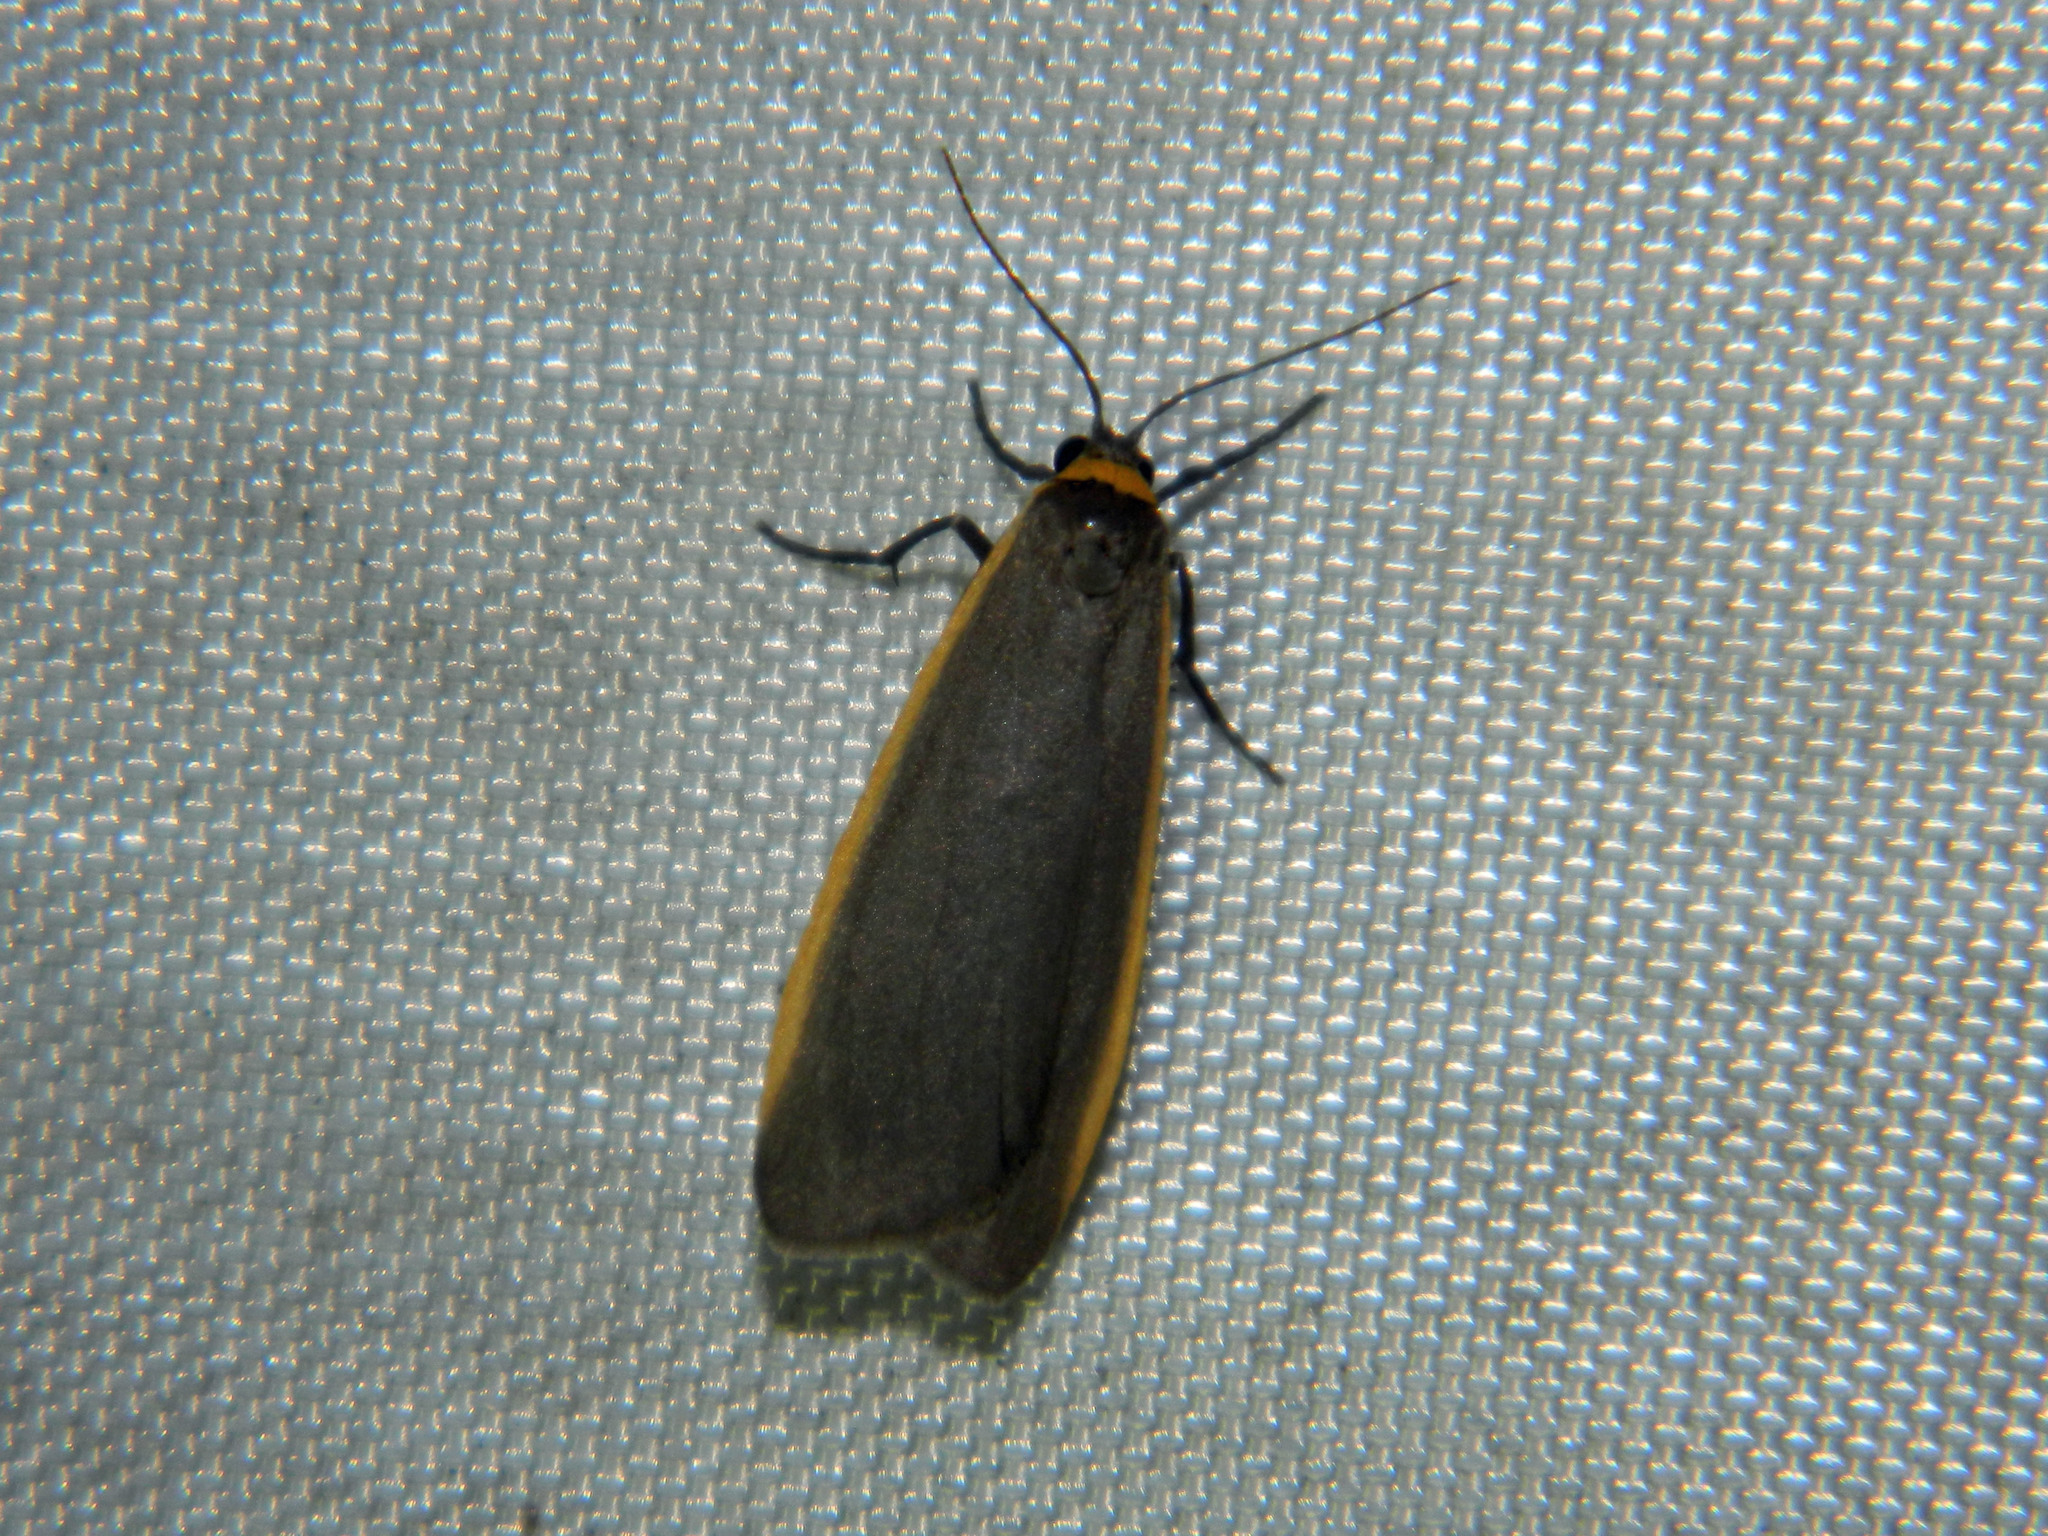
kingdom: Animalia
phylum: Arthropoda
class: Insecta
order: Lepidoptera
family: Erebidae
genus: Manulea
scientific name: Manulea bicolor
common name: Bicolored moth
